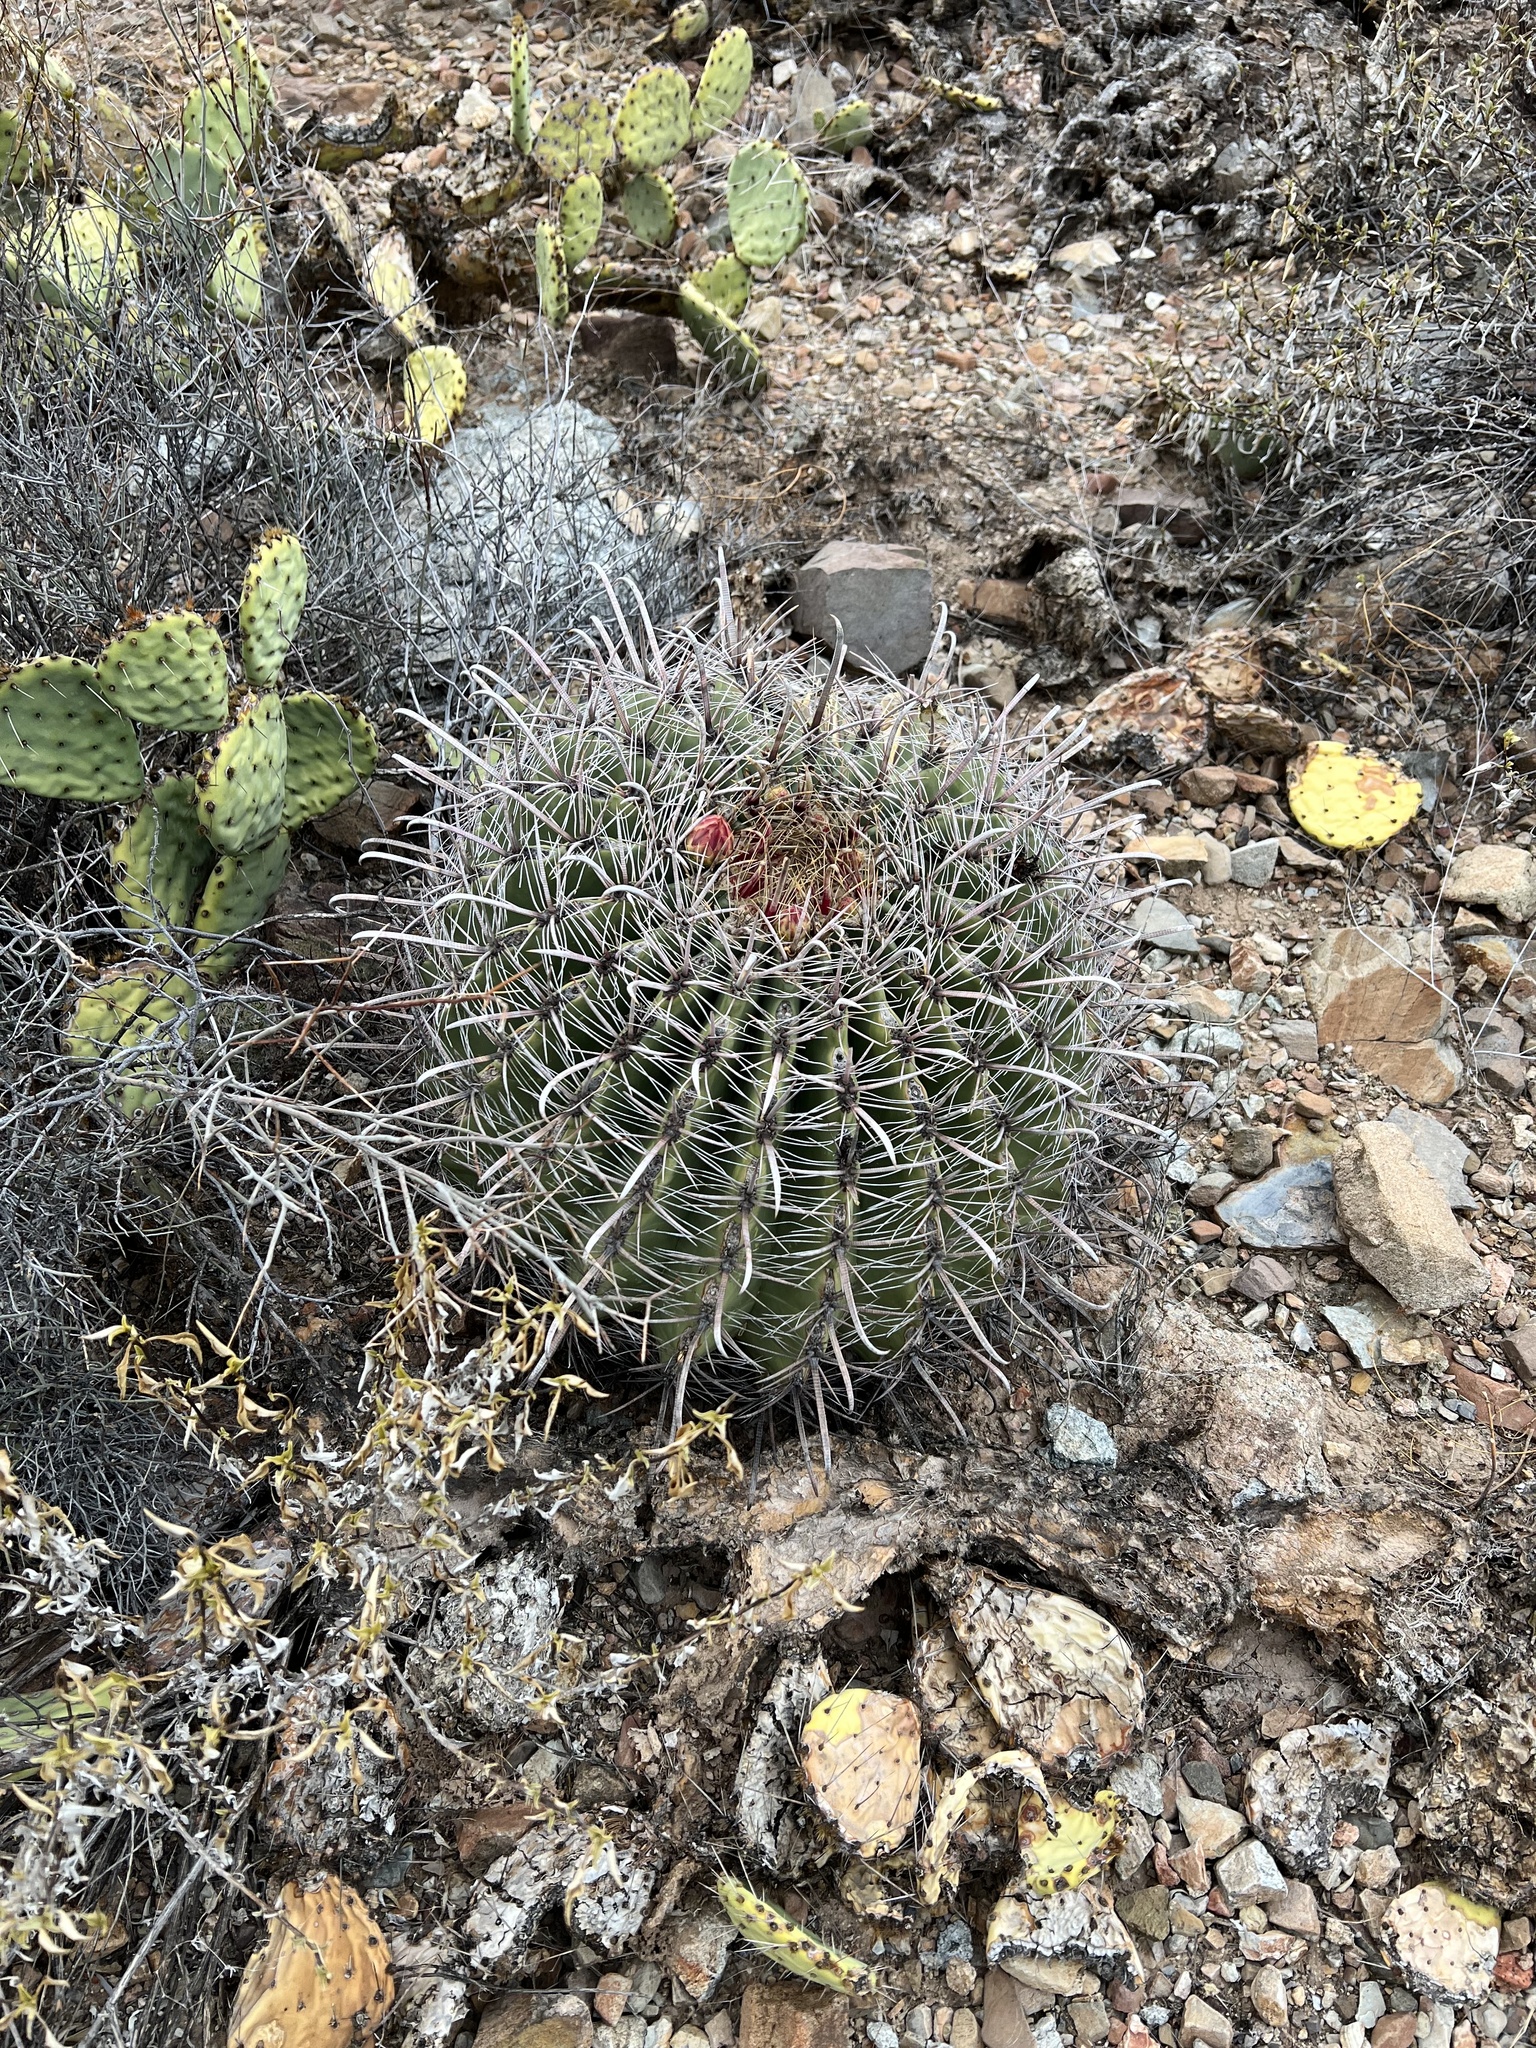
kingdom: Plantae
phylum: Tracheophyta
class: Magnoliopsida
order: Caryophyllales
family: Cactaceae
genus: Ferocactus
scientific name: Ferocactus wislizeni
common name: Candy barrel cactus
